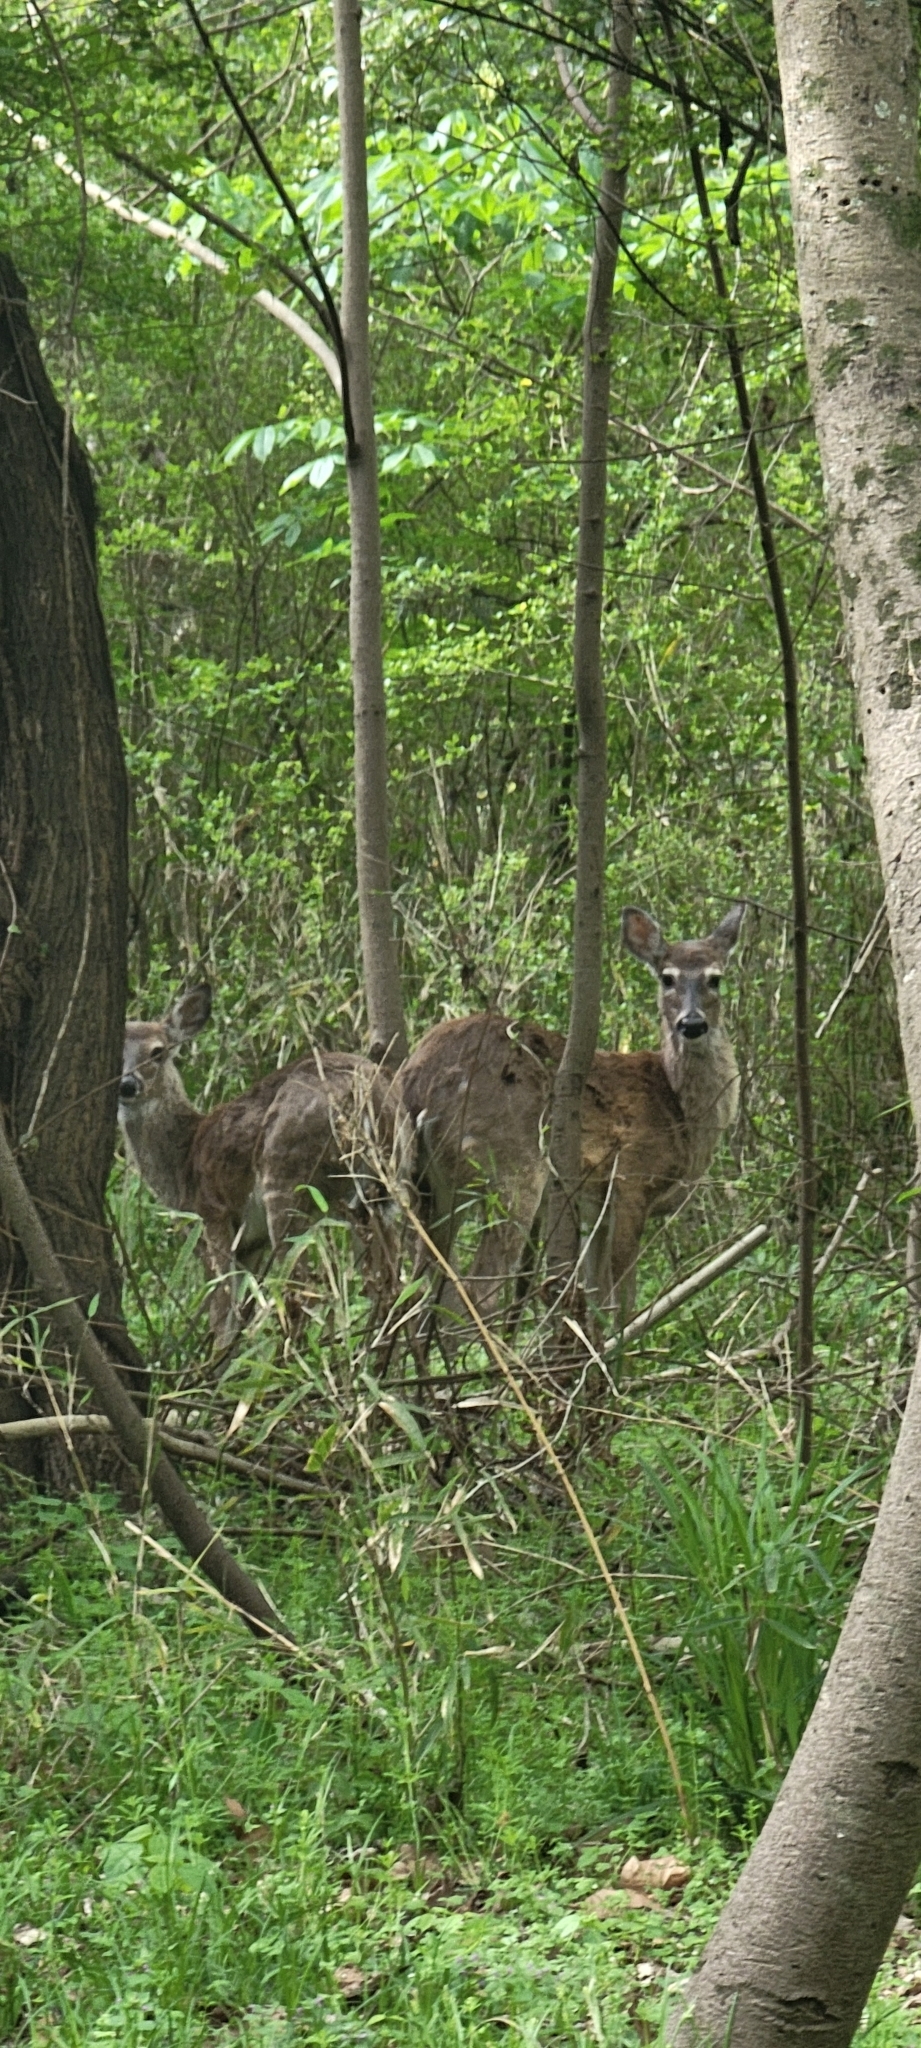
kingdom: Animalia
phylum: Chordata
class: Mammalia
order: Artiodactyla
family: Cervidae
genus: Odocoileus
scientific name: Odocoileus virginianus
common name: White-tailed deer
